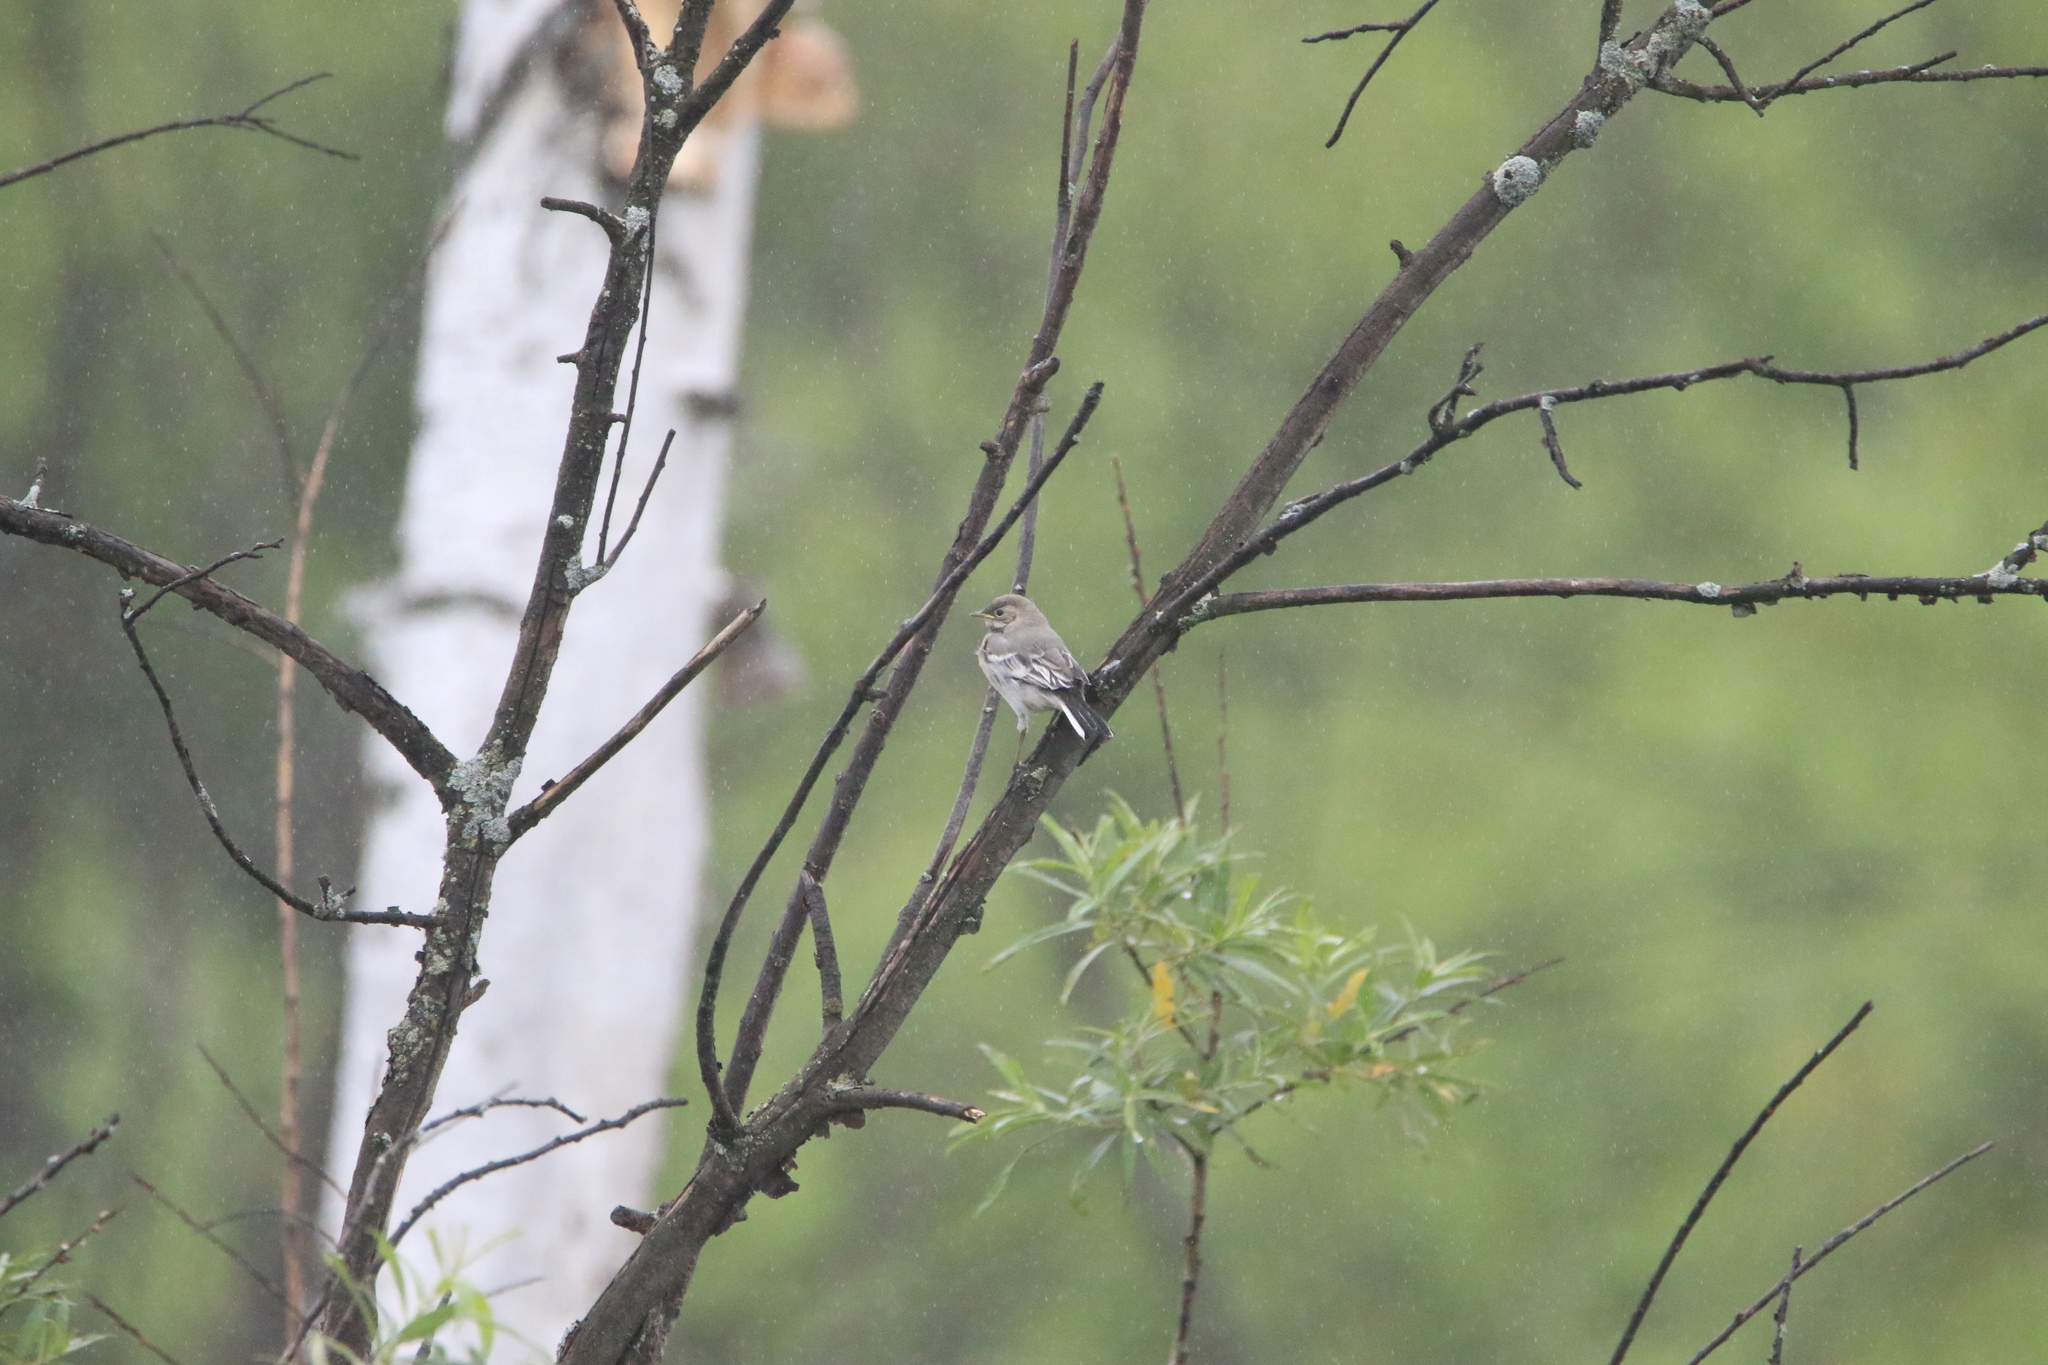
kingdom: Animalia
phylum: Chordata
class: Aves
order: Passeriformes
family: Motacillidae
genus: Motacilla
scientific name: Motacilla alba
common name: White wagtail
